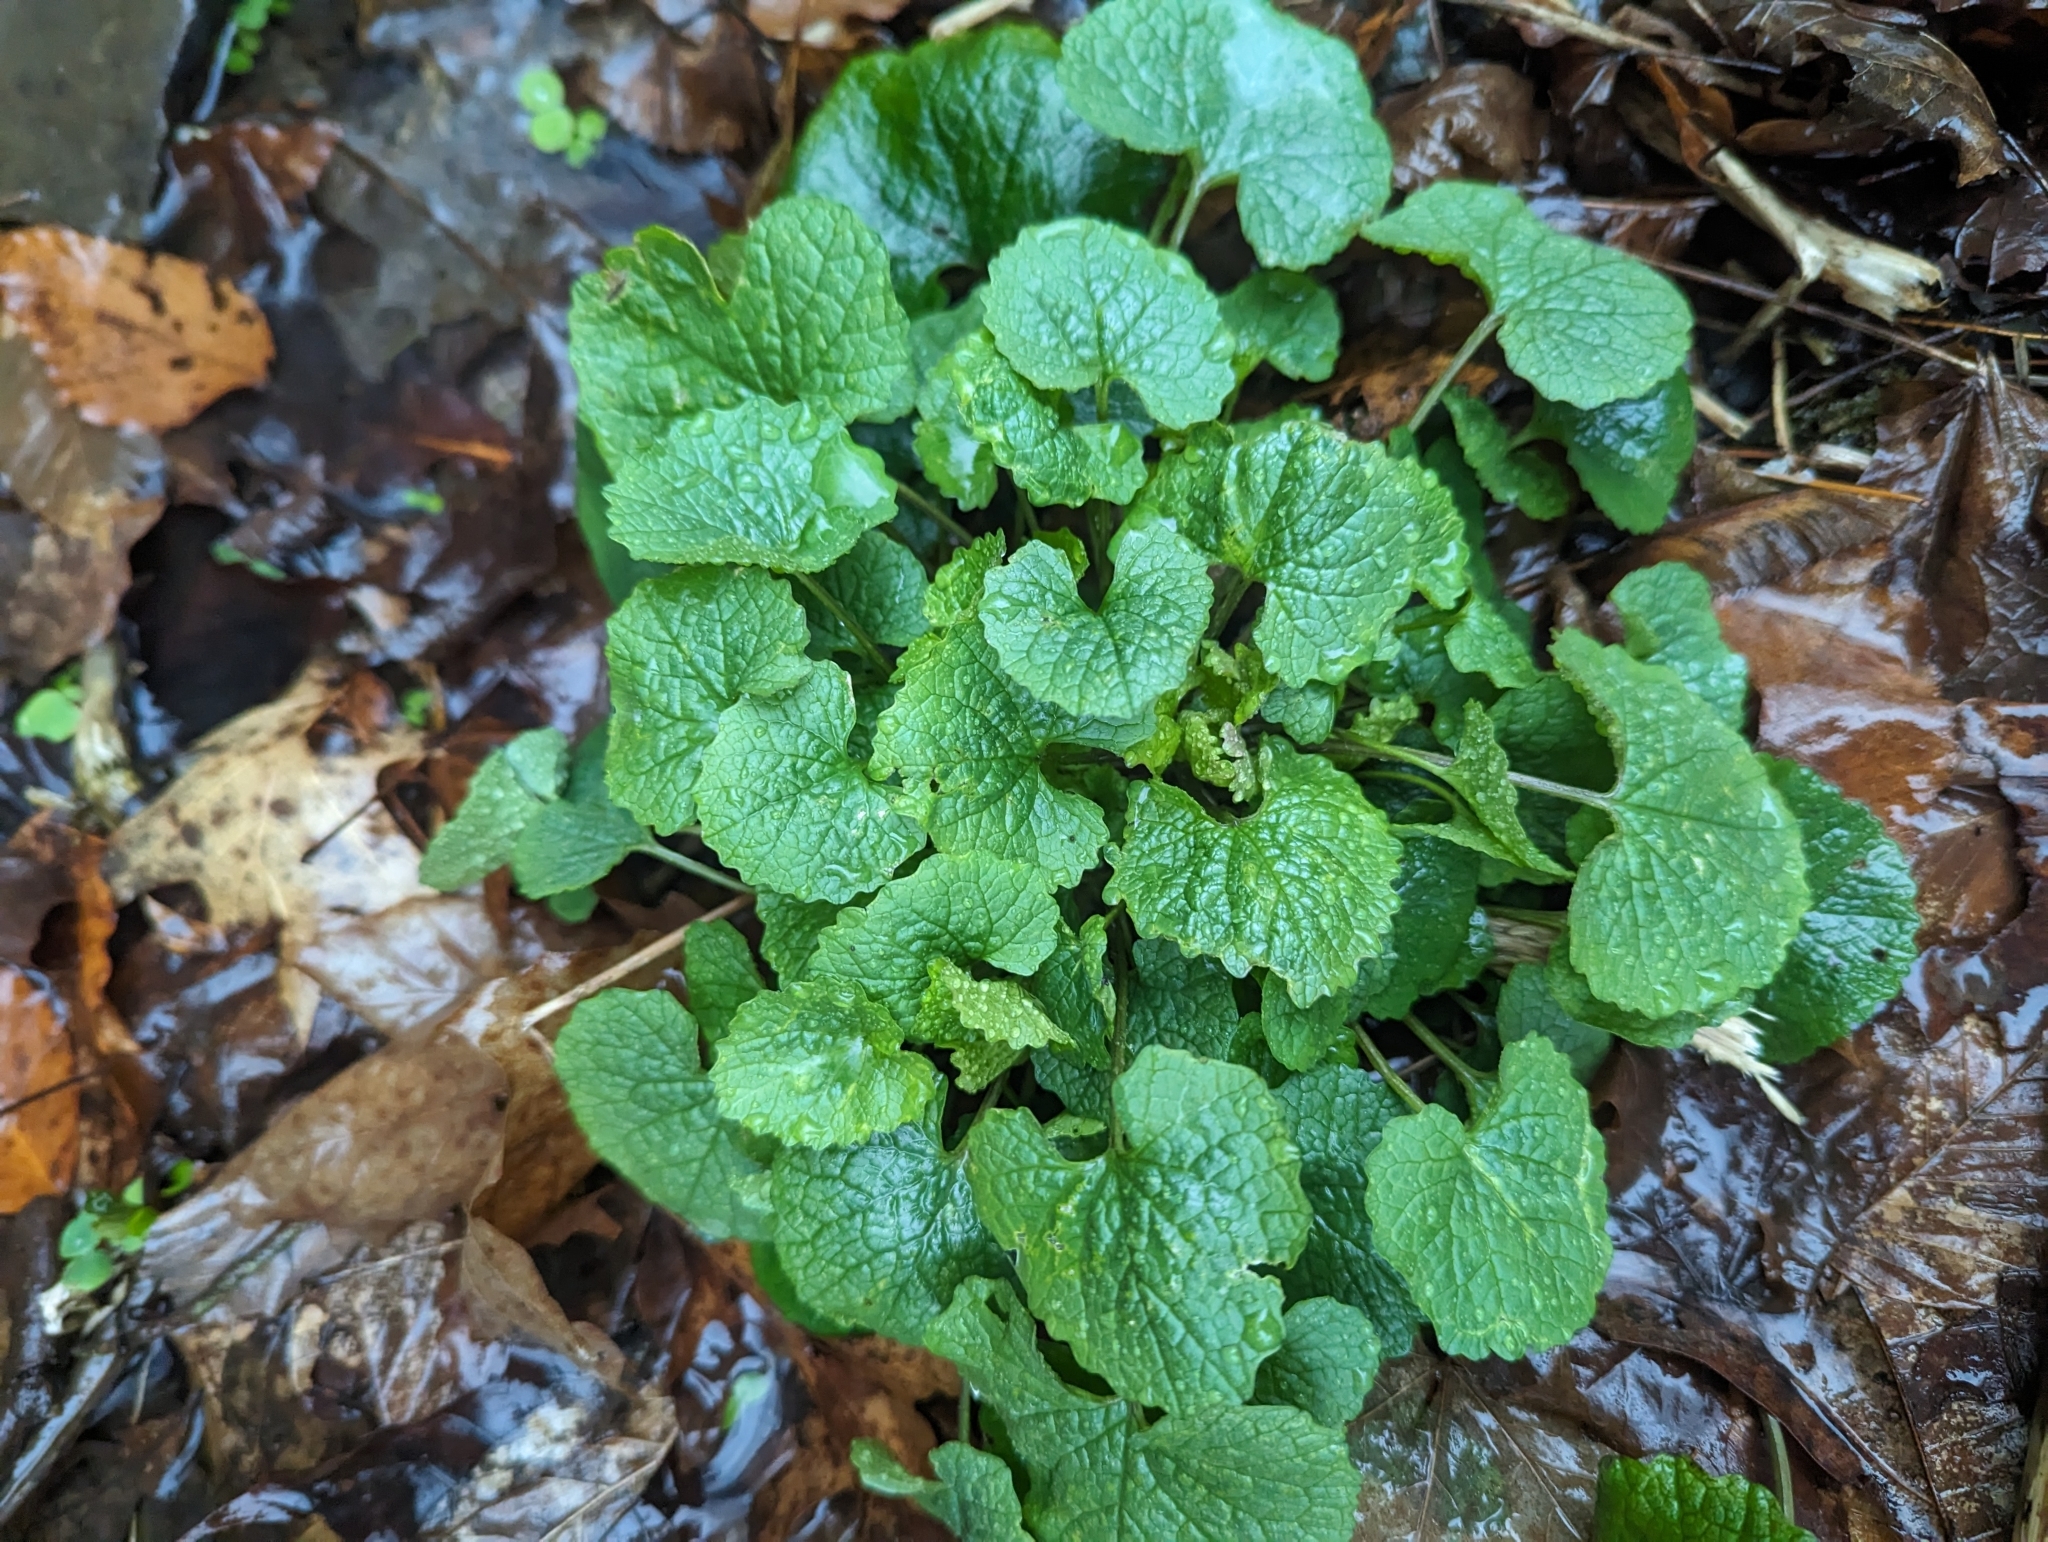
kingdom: Plantae
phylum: Tracheophyta
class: Magnoliopsida
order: Brassicales
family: Brassicaceae
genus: Alliaria
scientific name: Alliaria petiolata
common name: Garlic mustard
